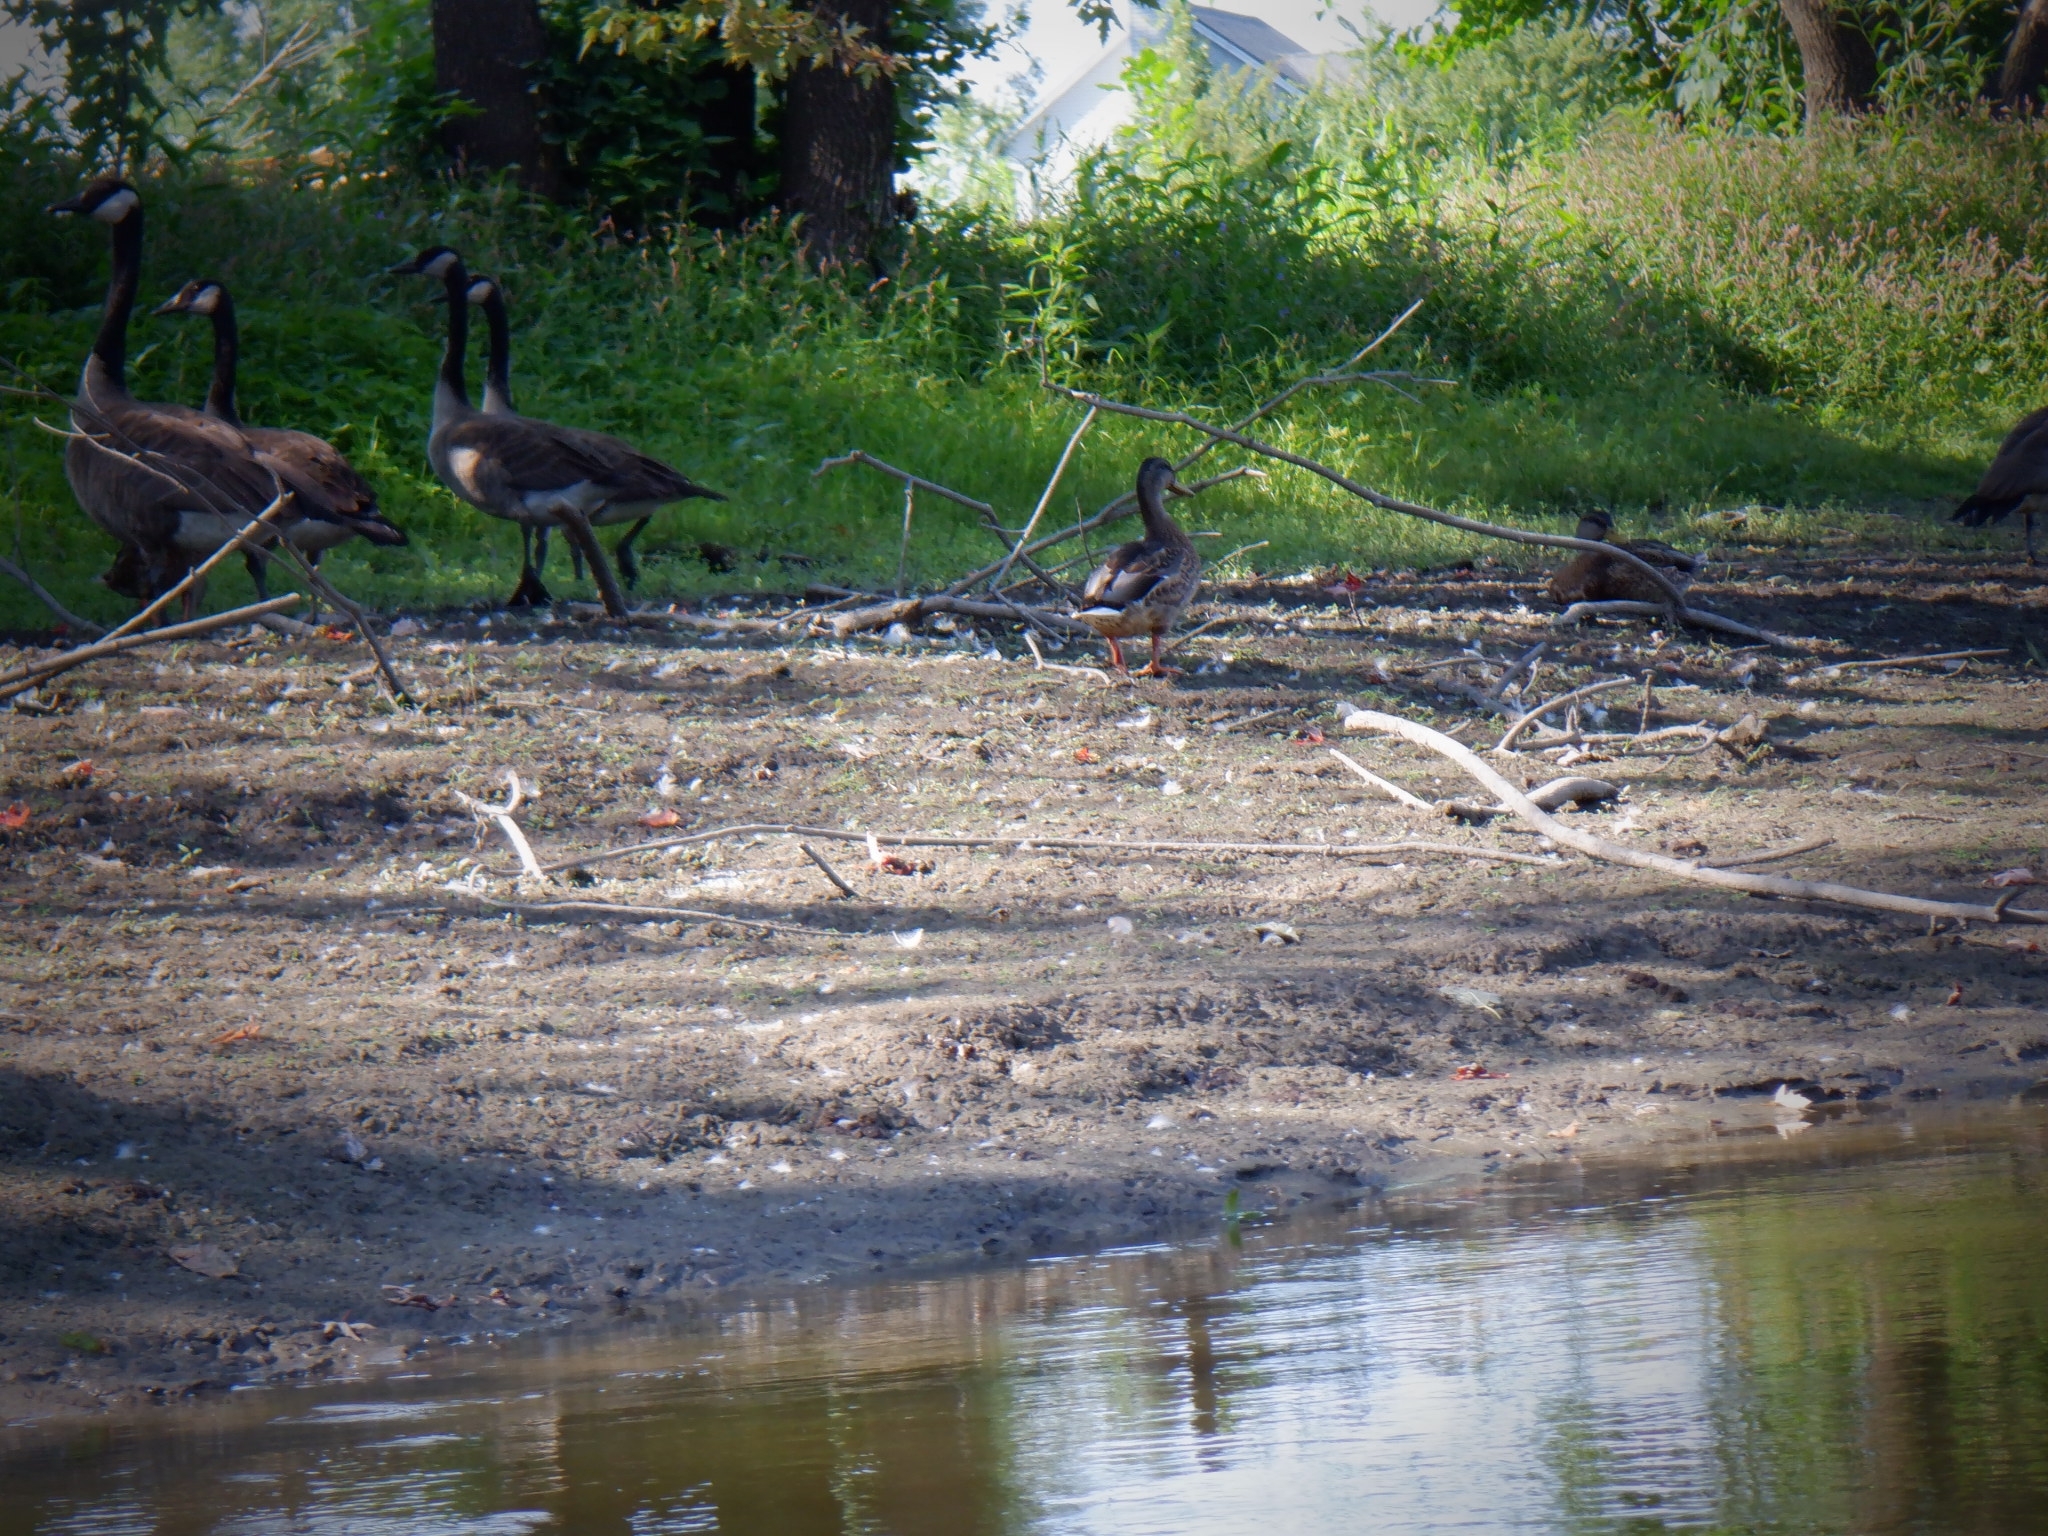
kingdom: Animalia
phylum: Chordata
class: Aves
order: Anseriformes
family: Anatidae
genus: Branta
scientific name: Branta canadensis
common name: Canada goose
